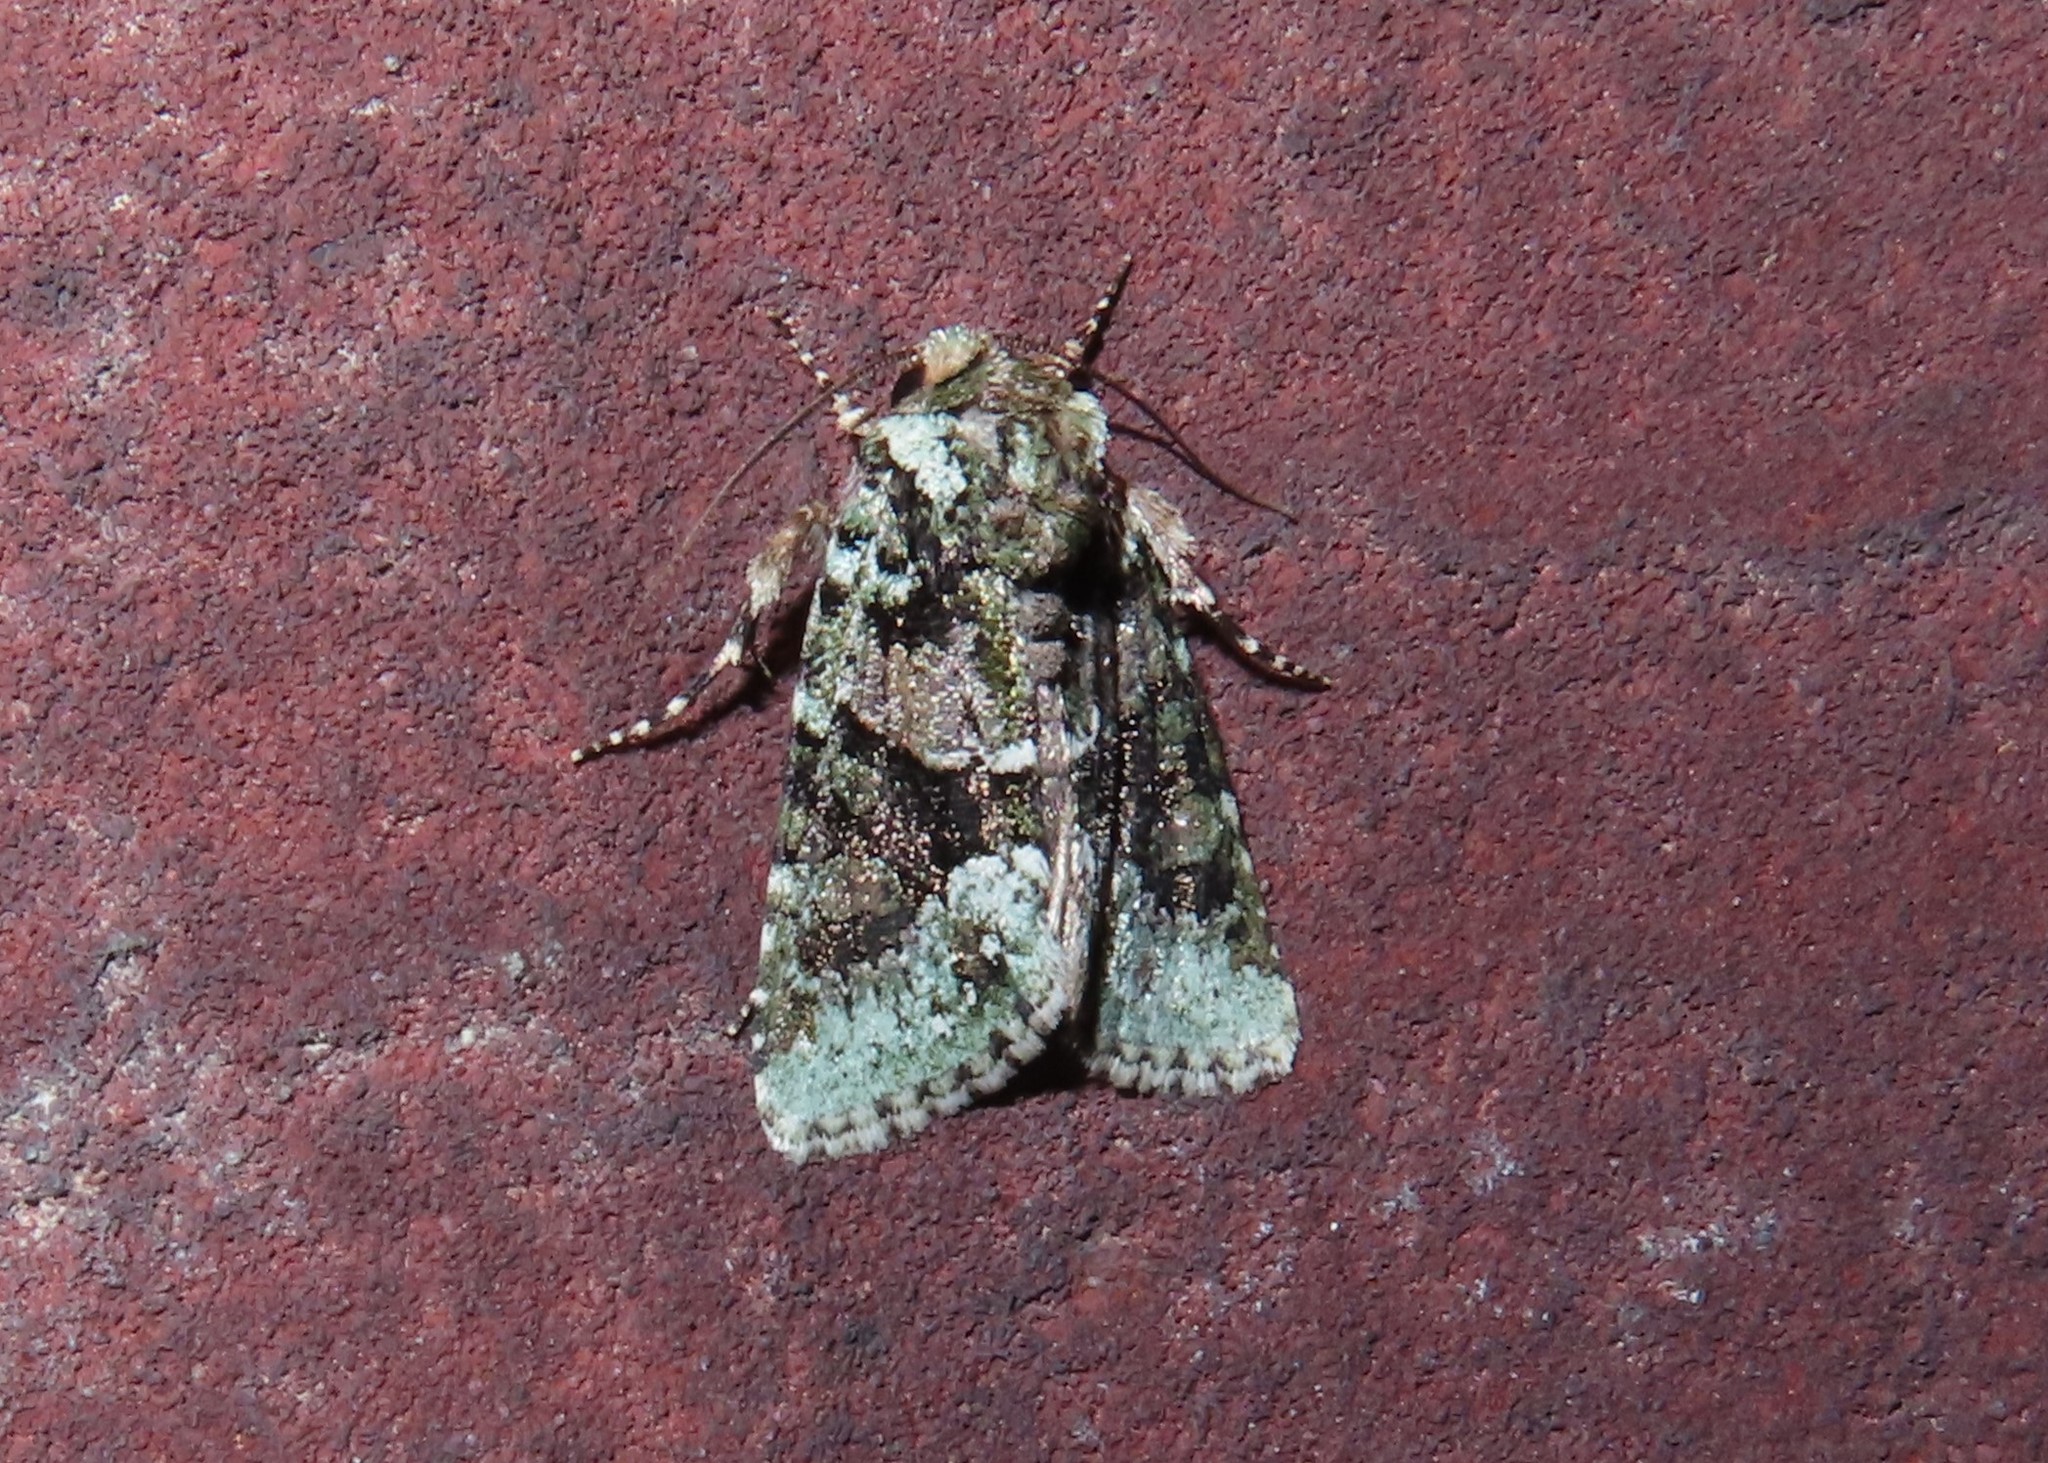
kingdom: Animalia
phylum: Arthropoda
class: Insecta
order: Lepidoptera
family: Noctuidae
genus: Lacinipolia
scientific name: Lacinipolia explicata
